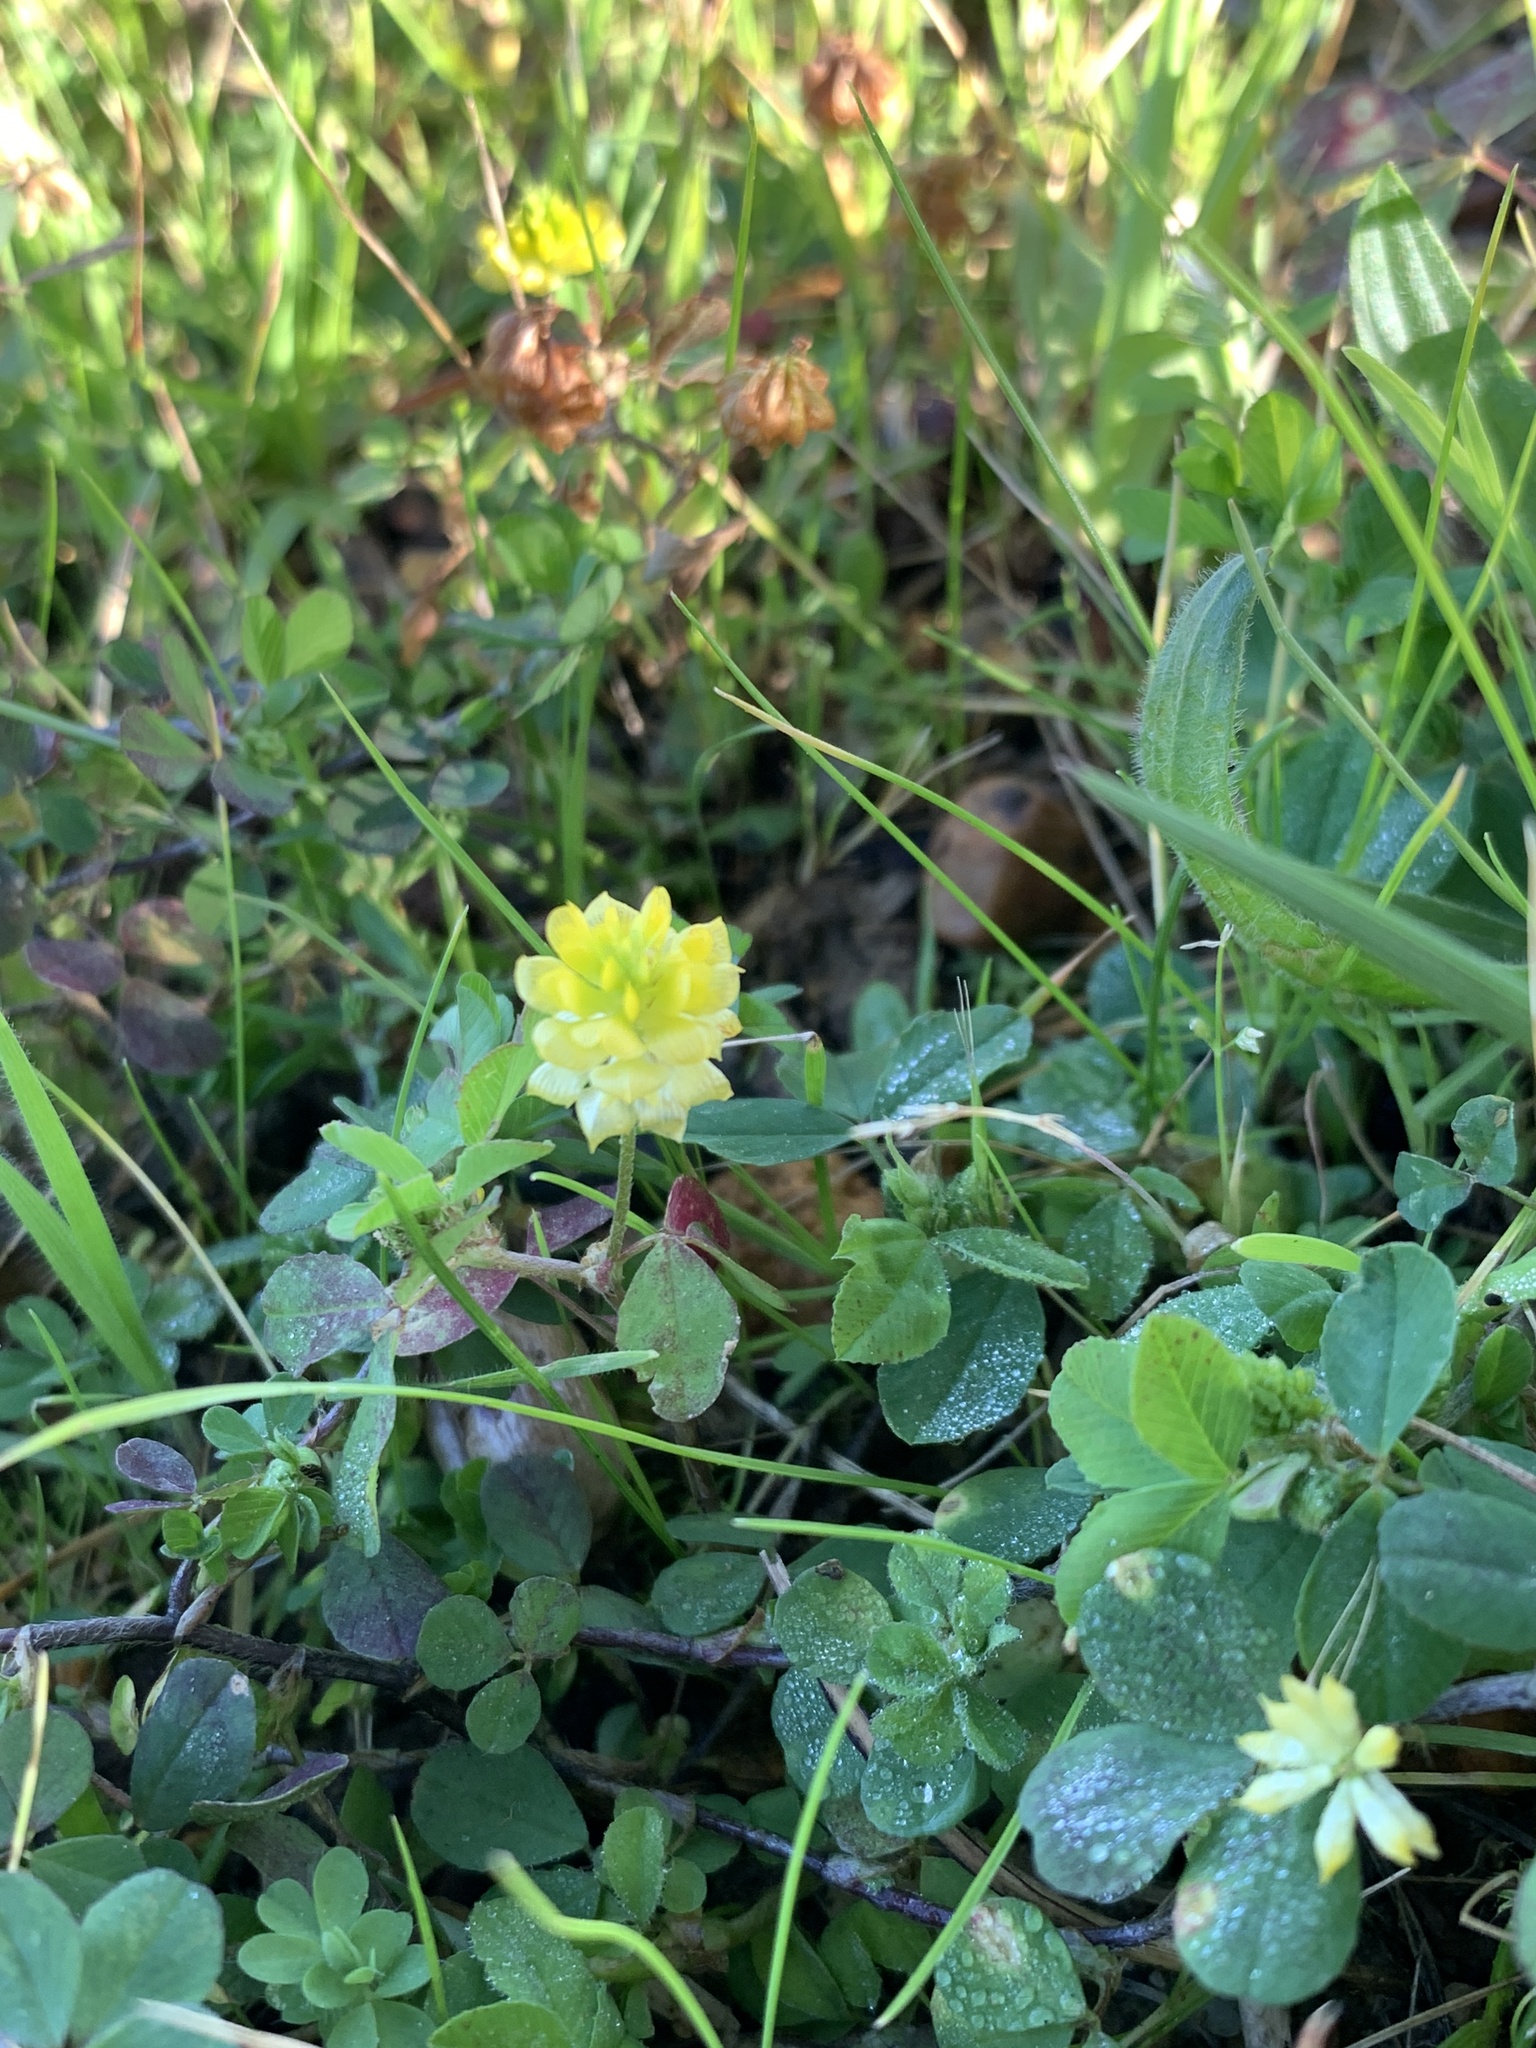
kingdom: Plantae
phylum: Tracheophyta
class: Magnoliopsida
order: Fabales
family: Fabaceae
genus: Trifolium
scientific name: Trifolium campestre
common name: Field clover
